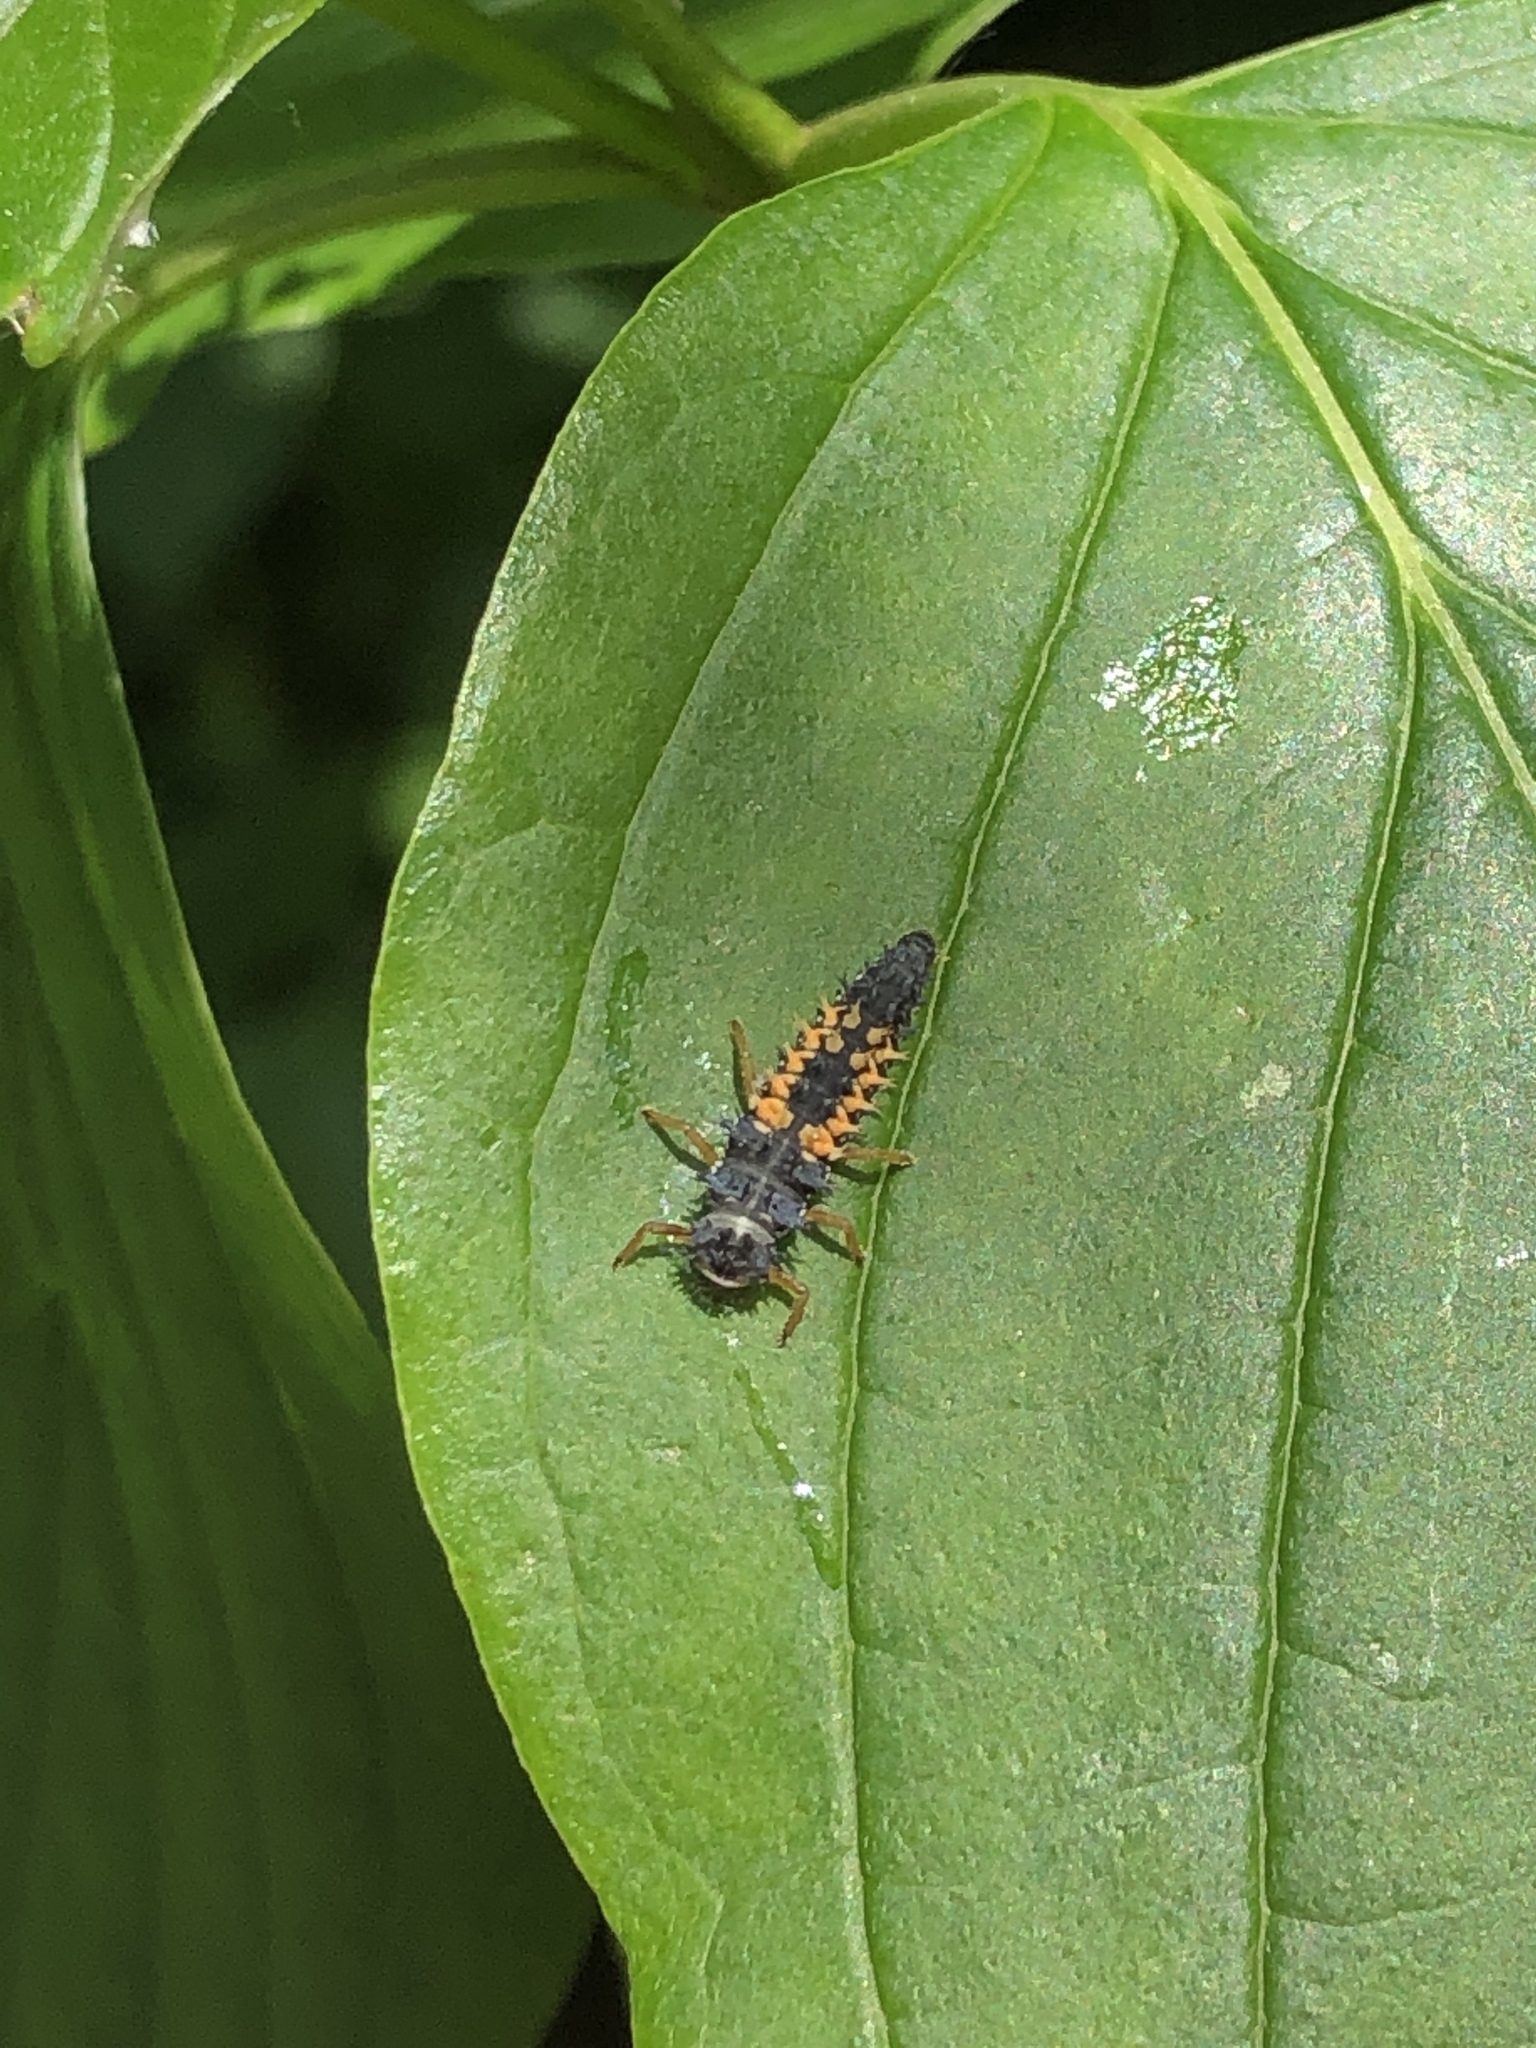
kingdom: Animalia
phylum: Arthropoda
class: Insecta
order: Coleoptera
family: Coccinellidae
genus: Harmonia
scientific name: Harmonia axyridis
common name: Harlequin ladybird
